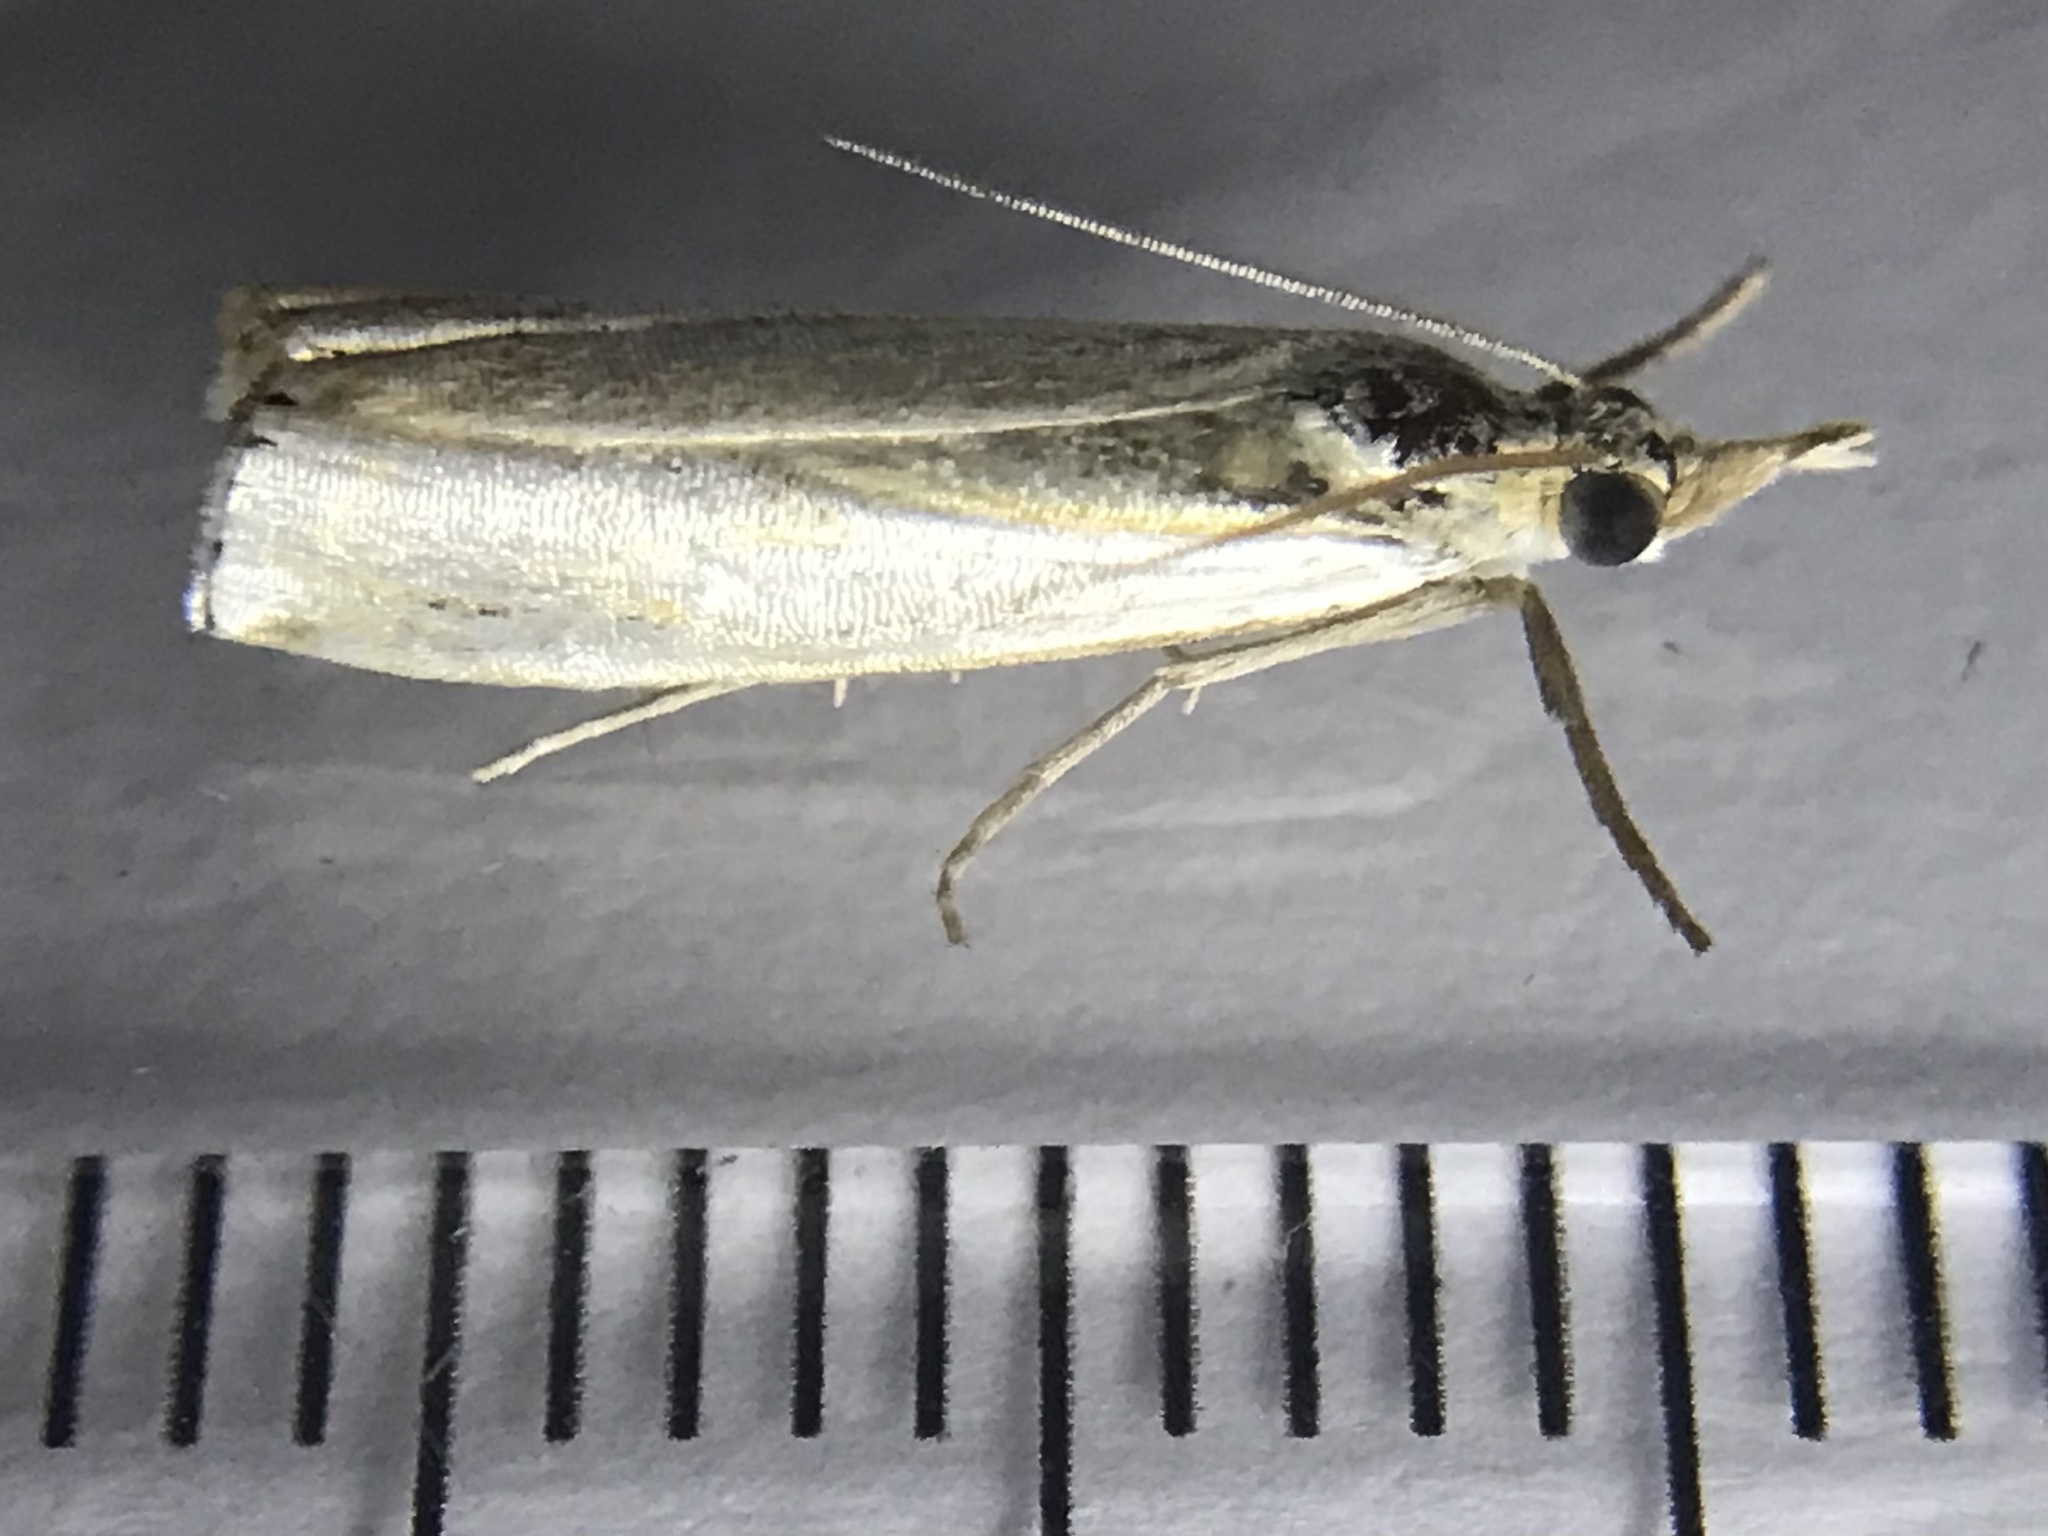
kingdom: Animalia
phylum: Arthropoda
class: Insecta
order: Lepidoptera
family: Crambidae
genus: Crambus
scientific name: Crambus
